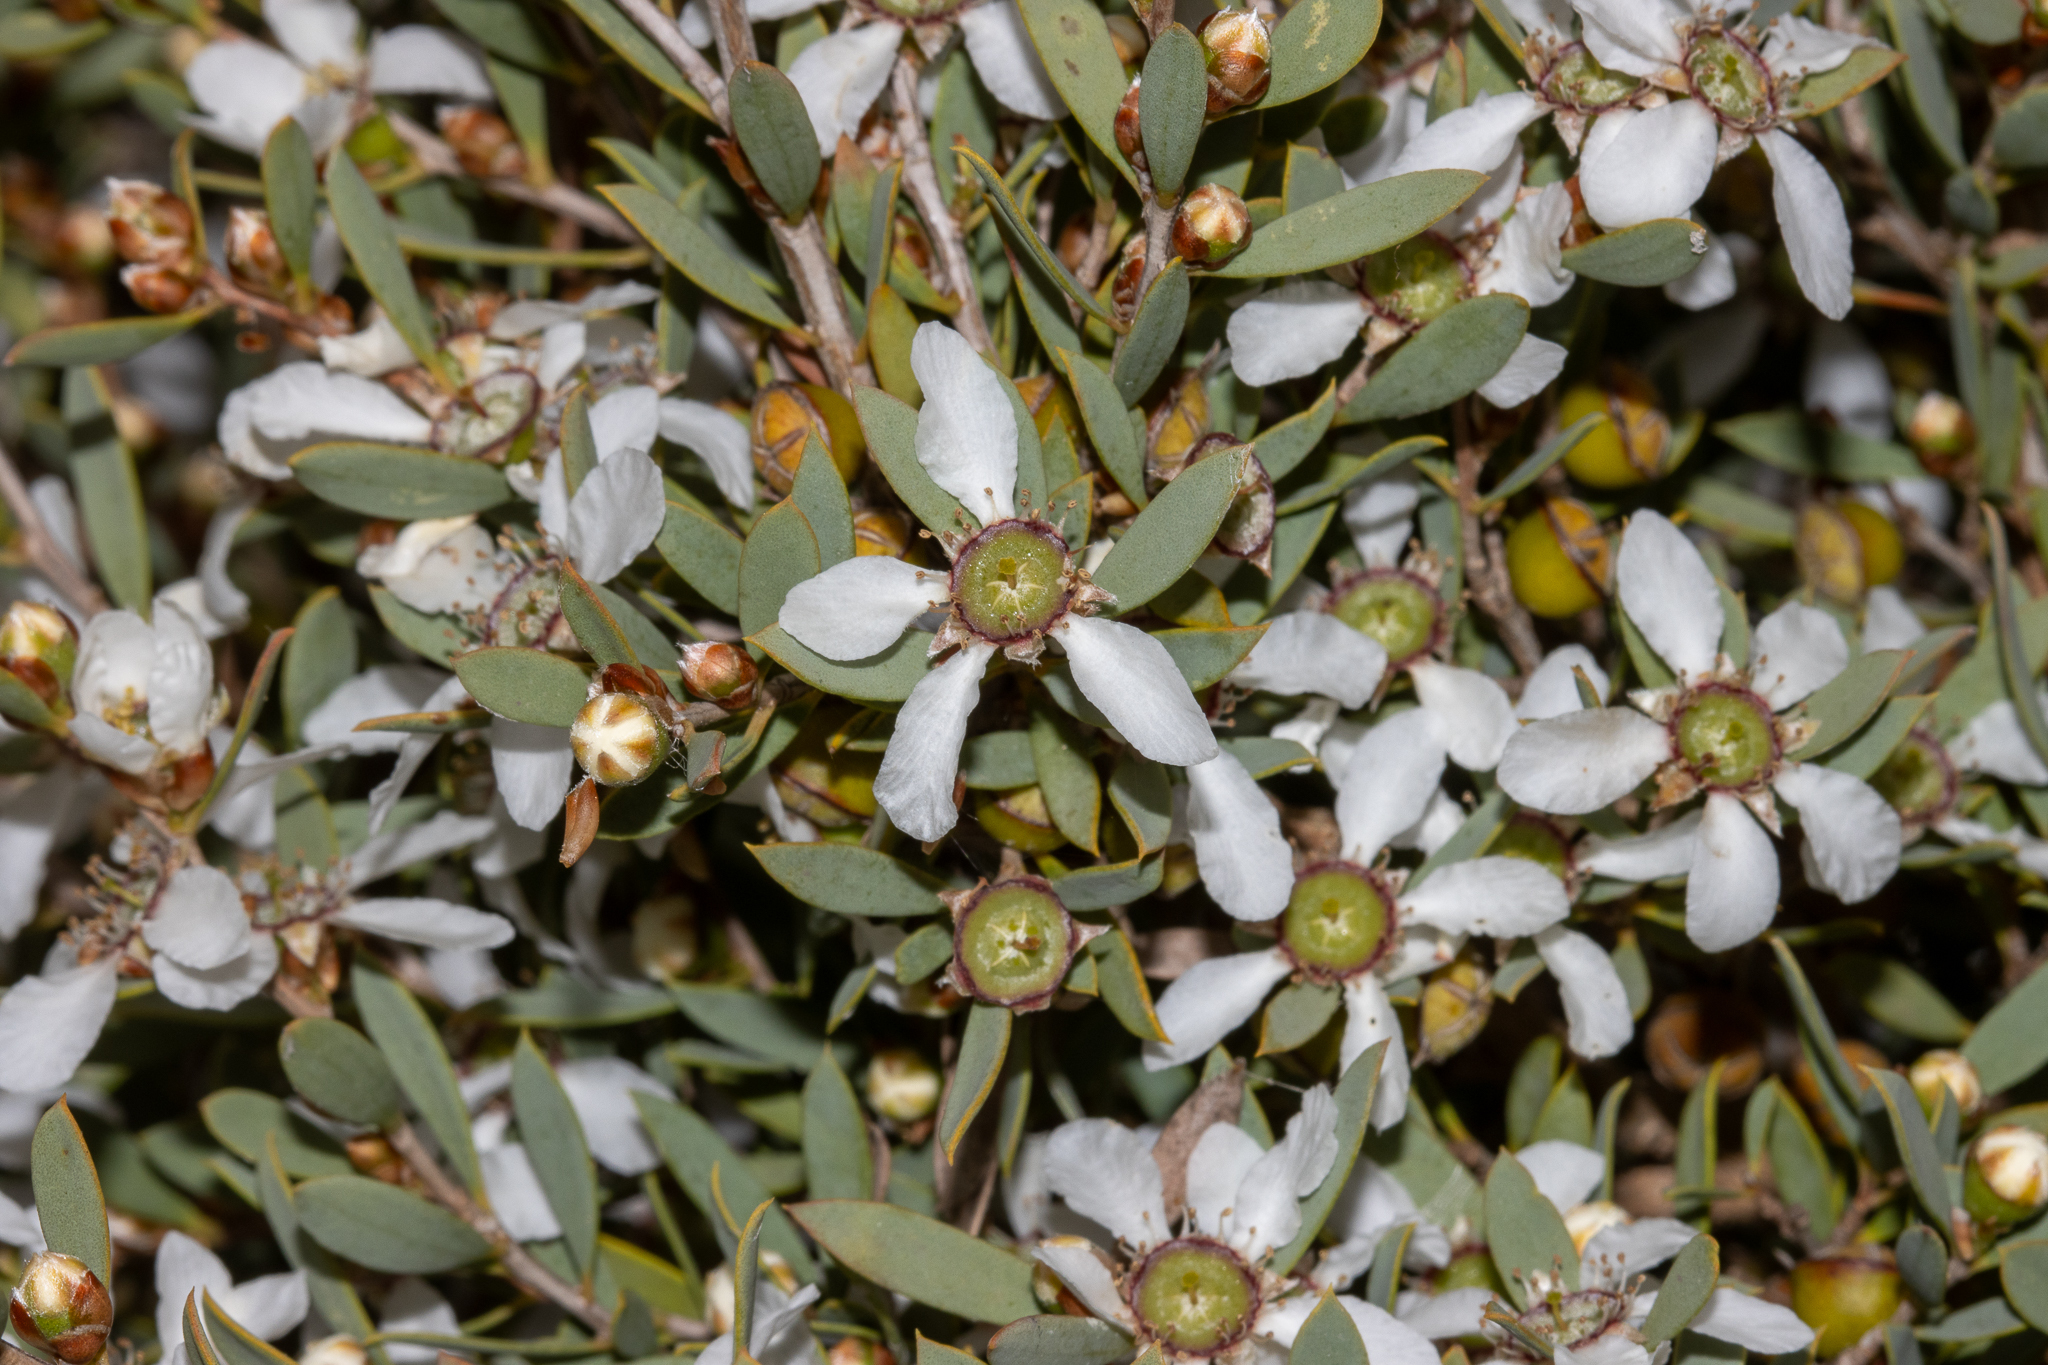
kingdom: Plantae
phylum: Tracheophyta
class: Magnoliopsida
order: Myrtales
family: Myrtaceae
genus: Leptospermum
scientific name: Leptospermum coriaceum
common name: Mallee teatree
